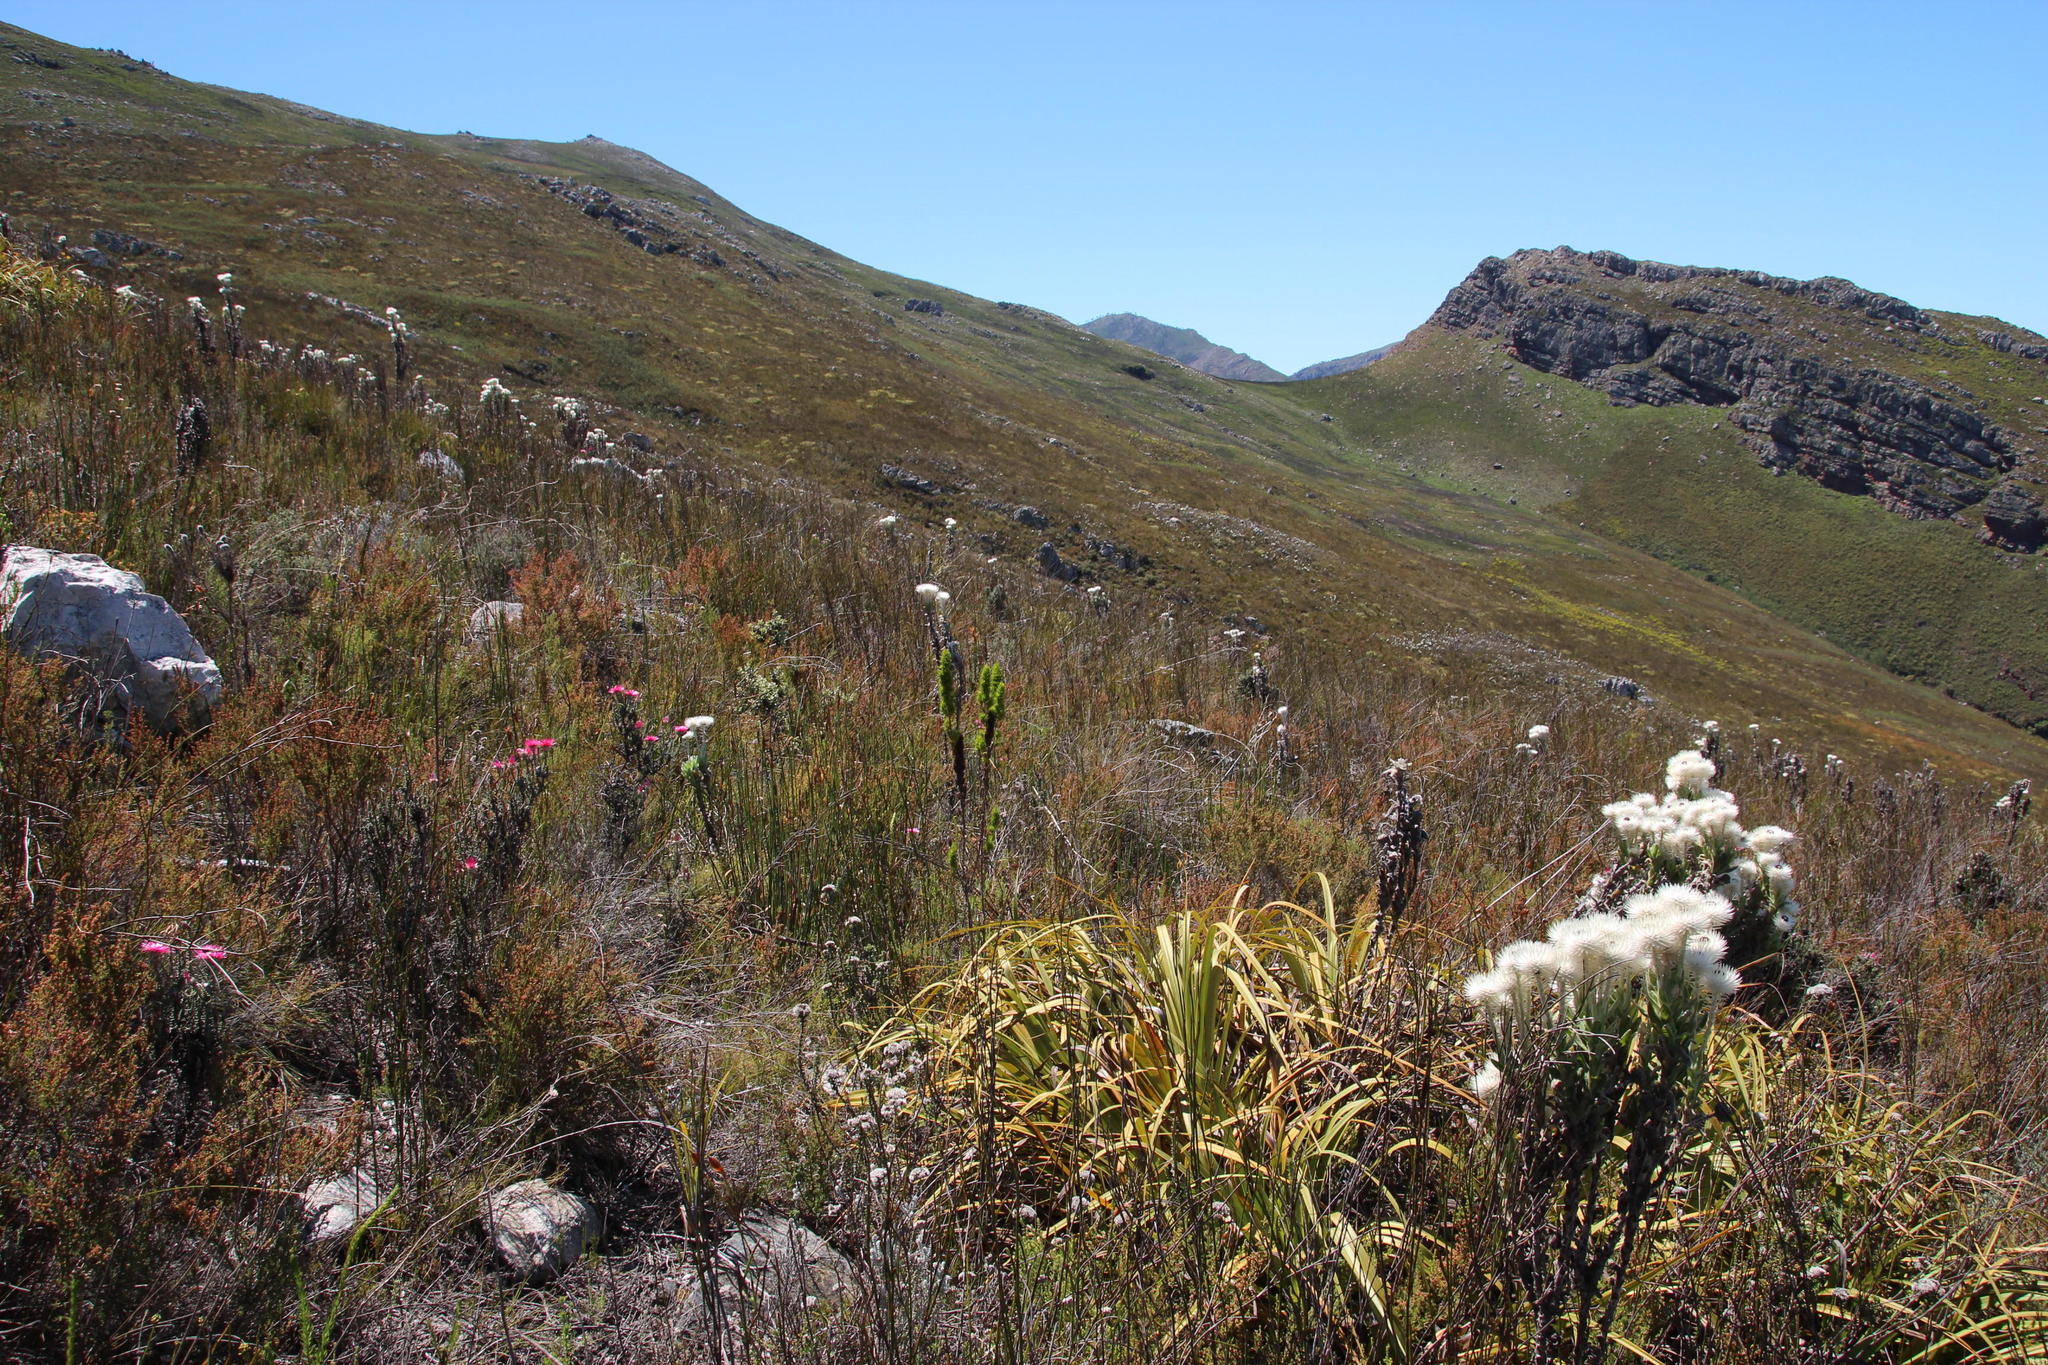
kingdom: Plantae
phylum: Tracheophyta
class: Magnoliopsida
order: Gentianales
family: Rubiaceae
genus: Anthospermum
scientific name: Anthospermum aethiopicum
